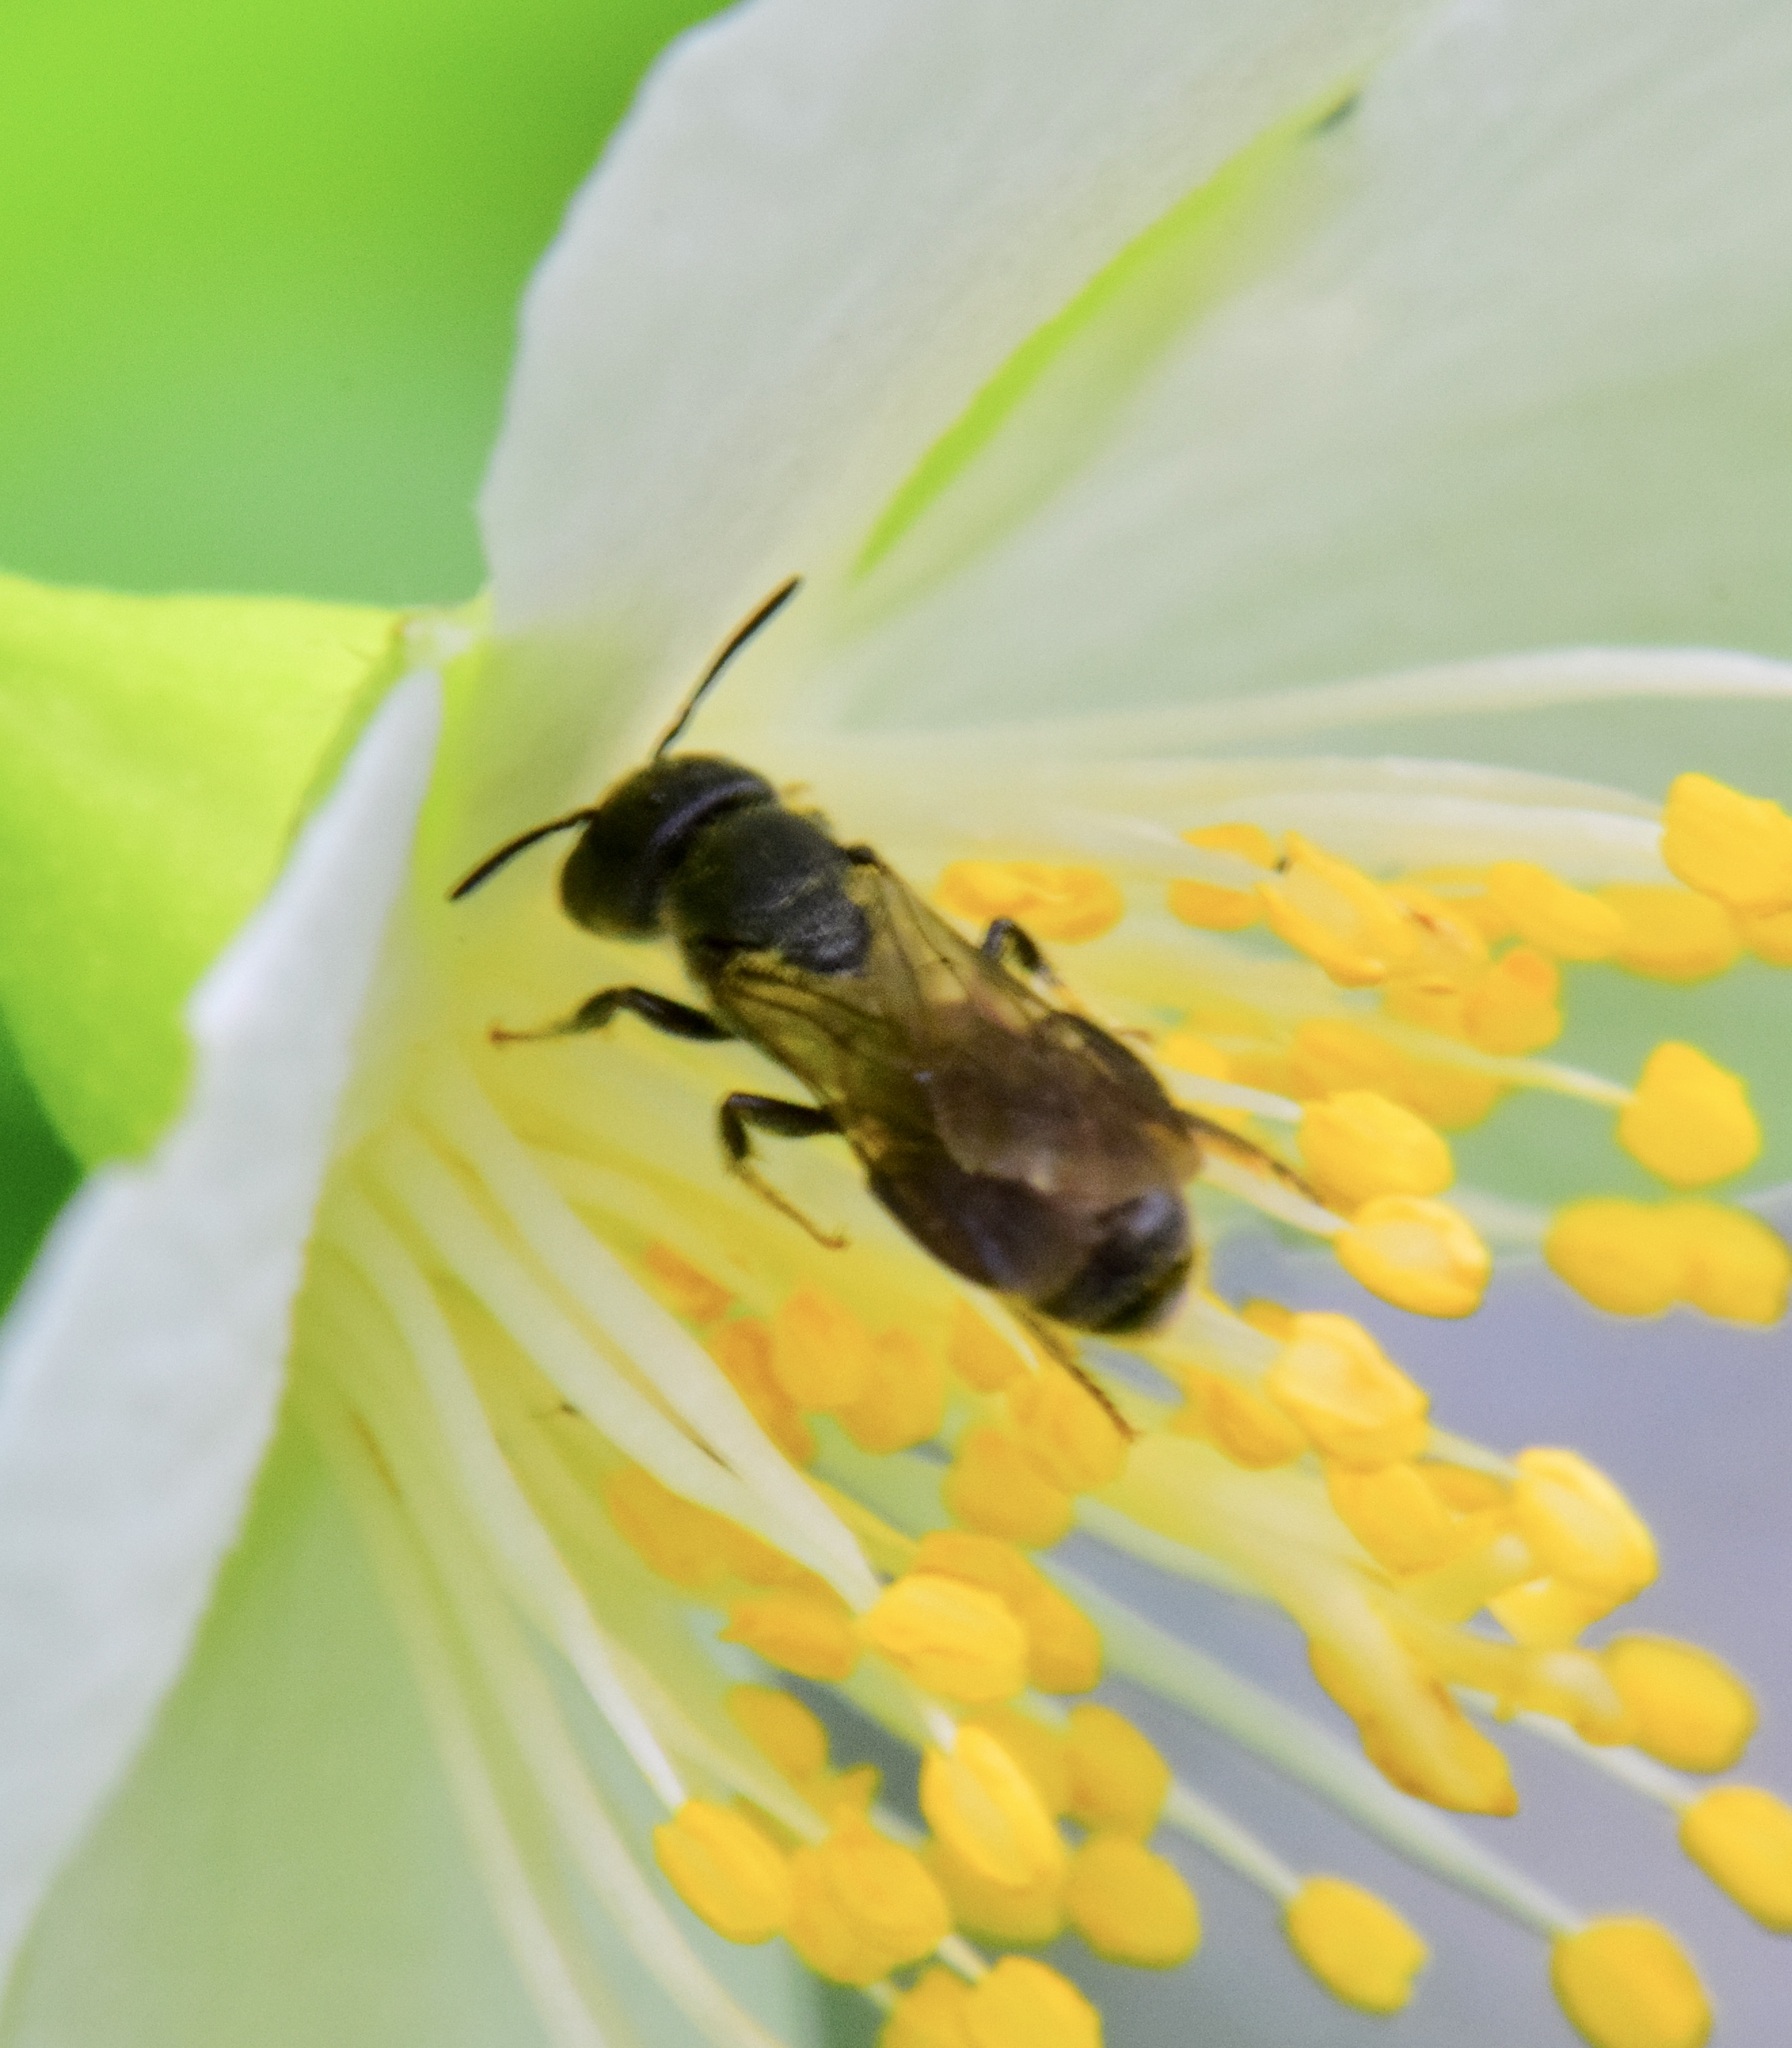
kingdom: Animalia
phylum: Arthropoda
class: Insecta
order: Hymenoptera
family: Megachilidae
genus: Chelostoma
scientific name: Chelostoma philadelphi
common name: Mock-orange scissor bee
